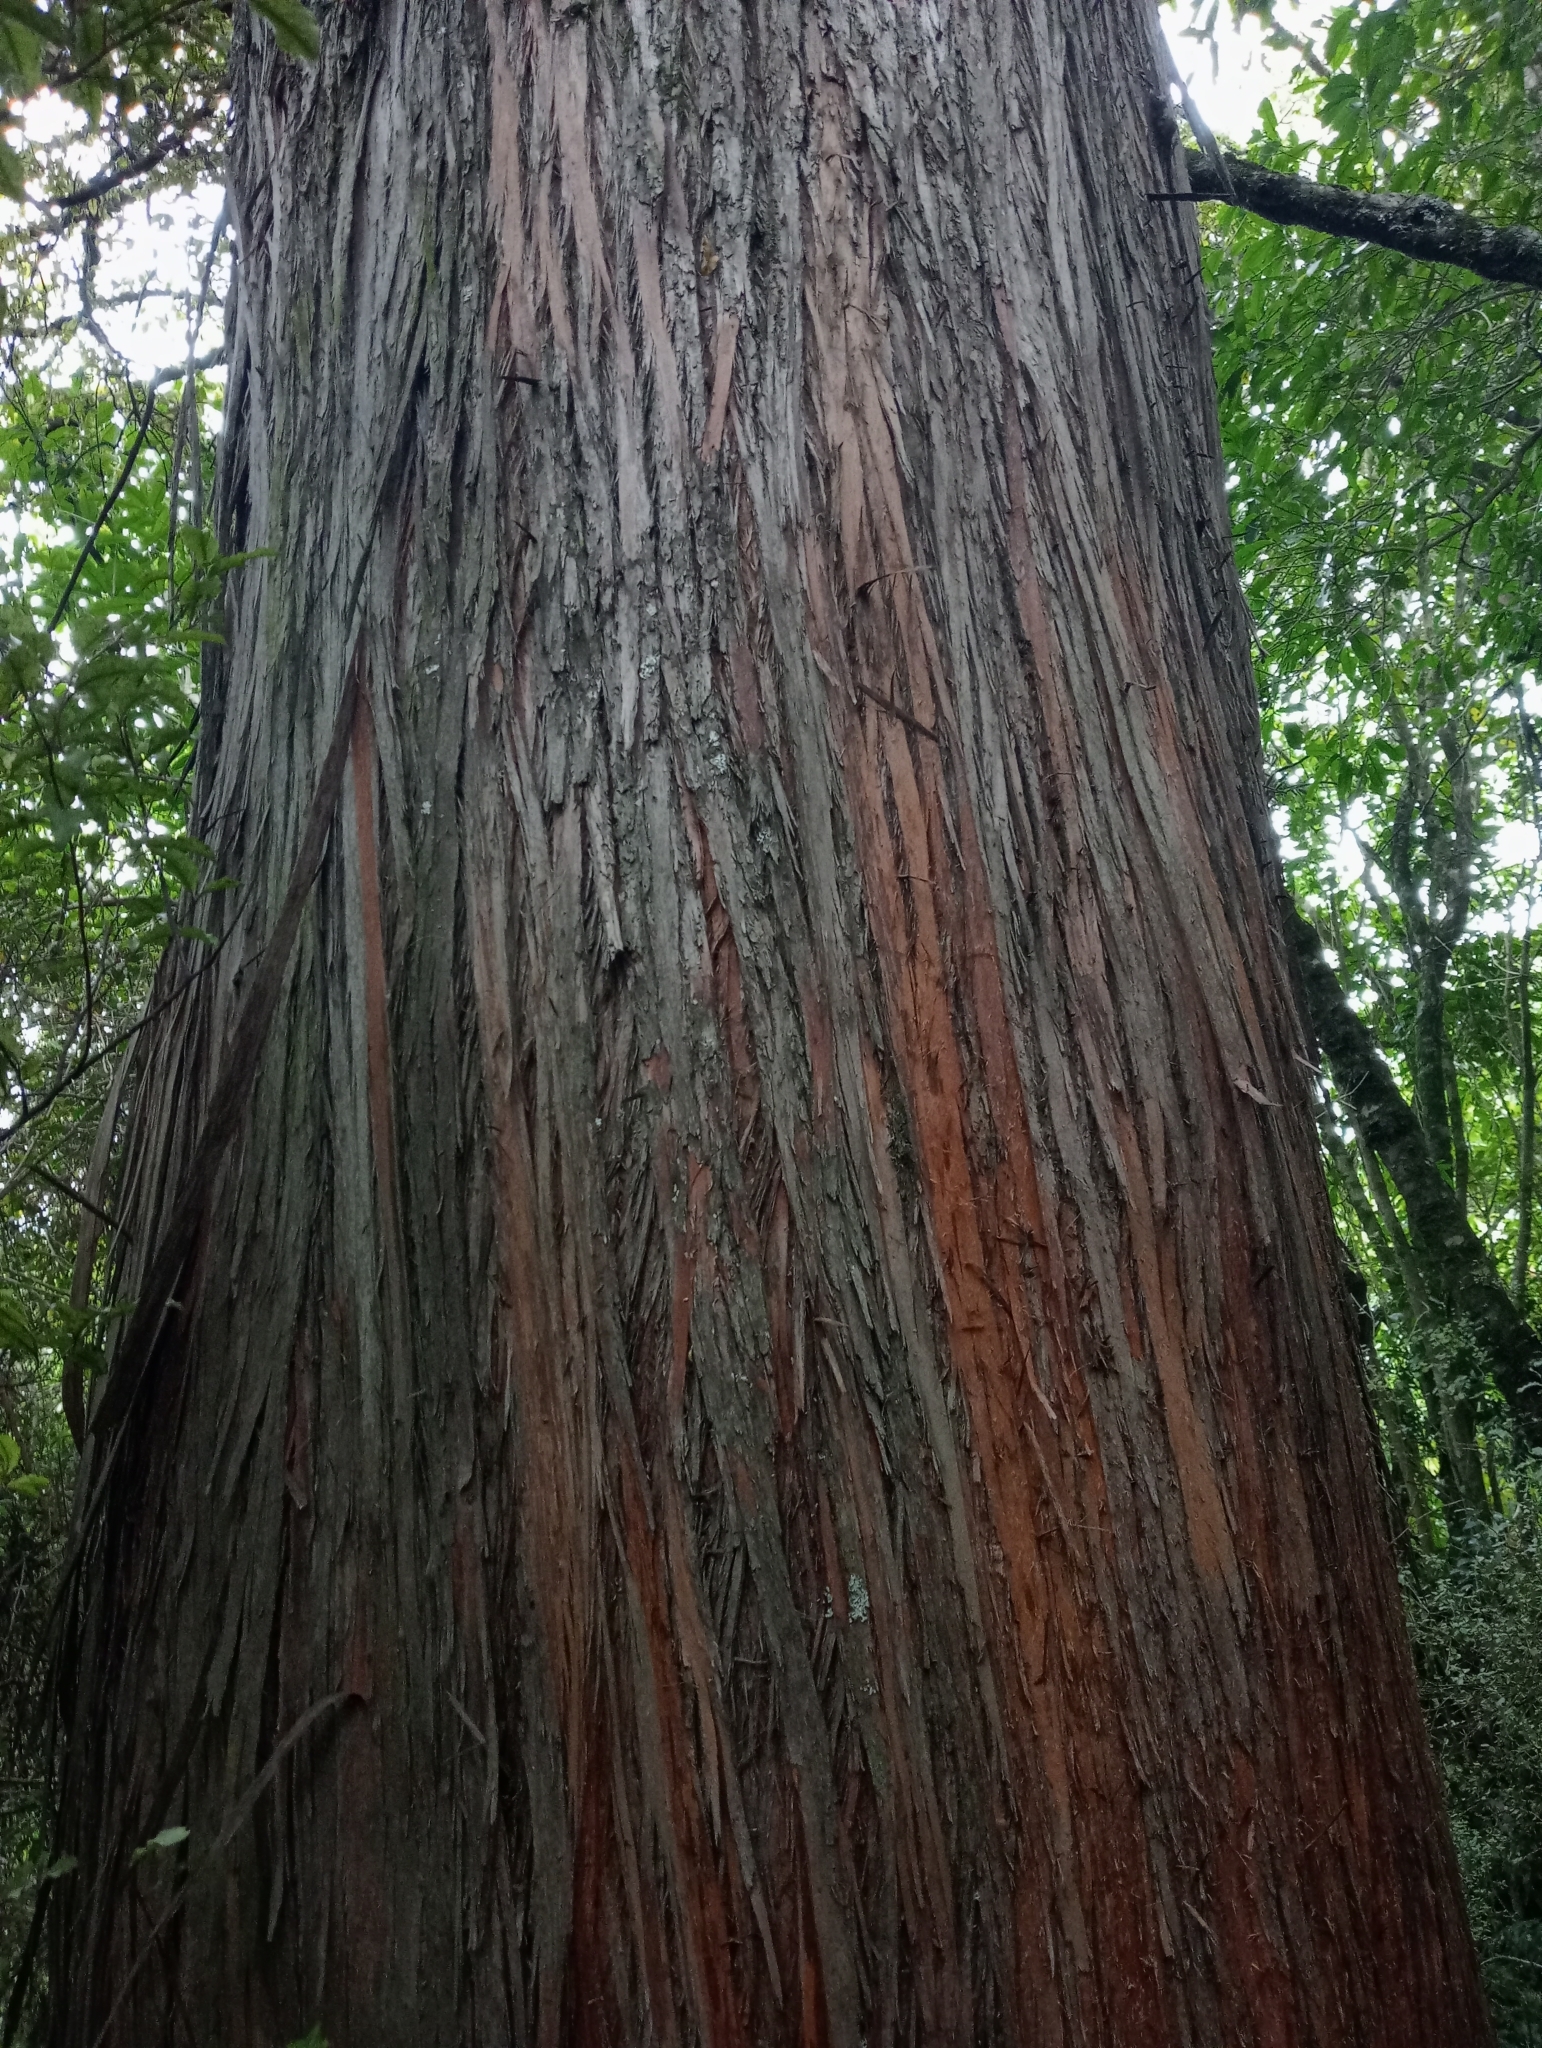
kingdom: Plantae
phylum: Tracheophyta
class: Pinopsida
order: Pinales
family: Podocarpaceae
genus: Podocarpus
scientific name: Podocarpus totara
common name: Totara
